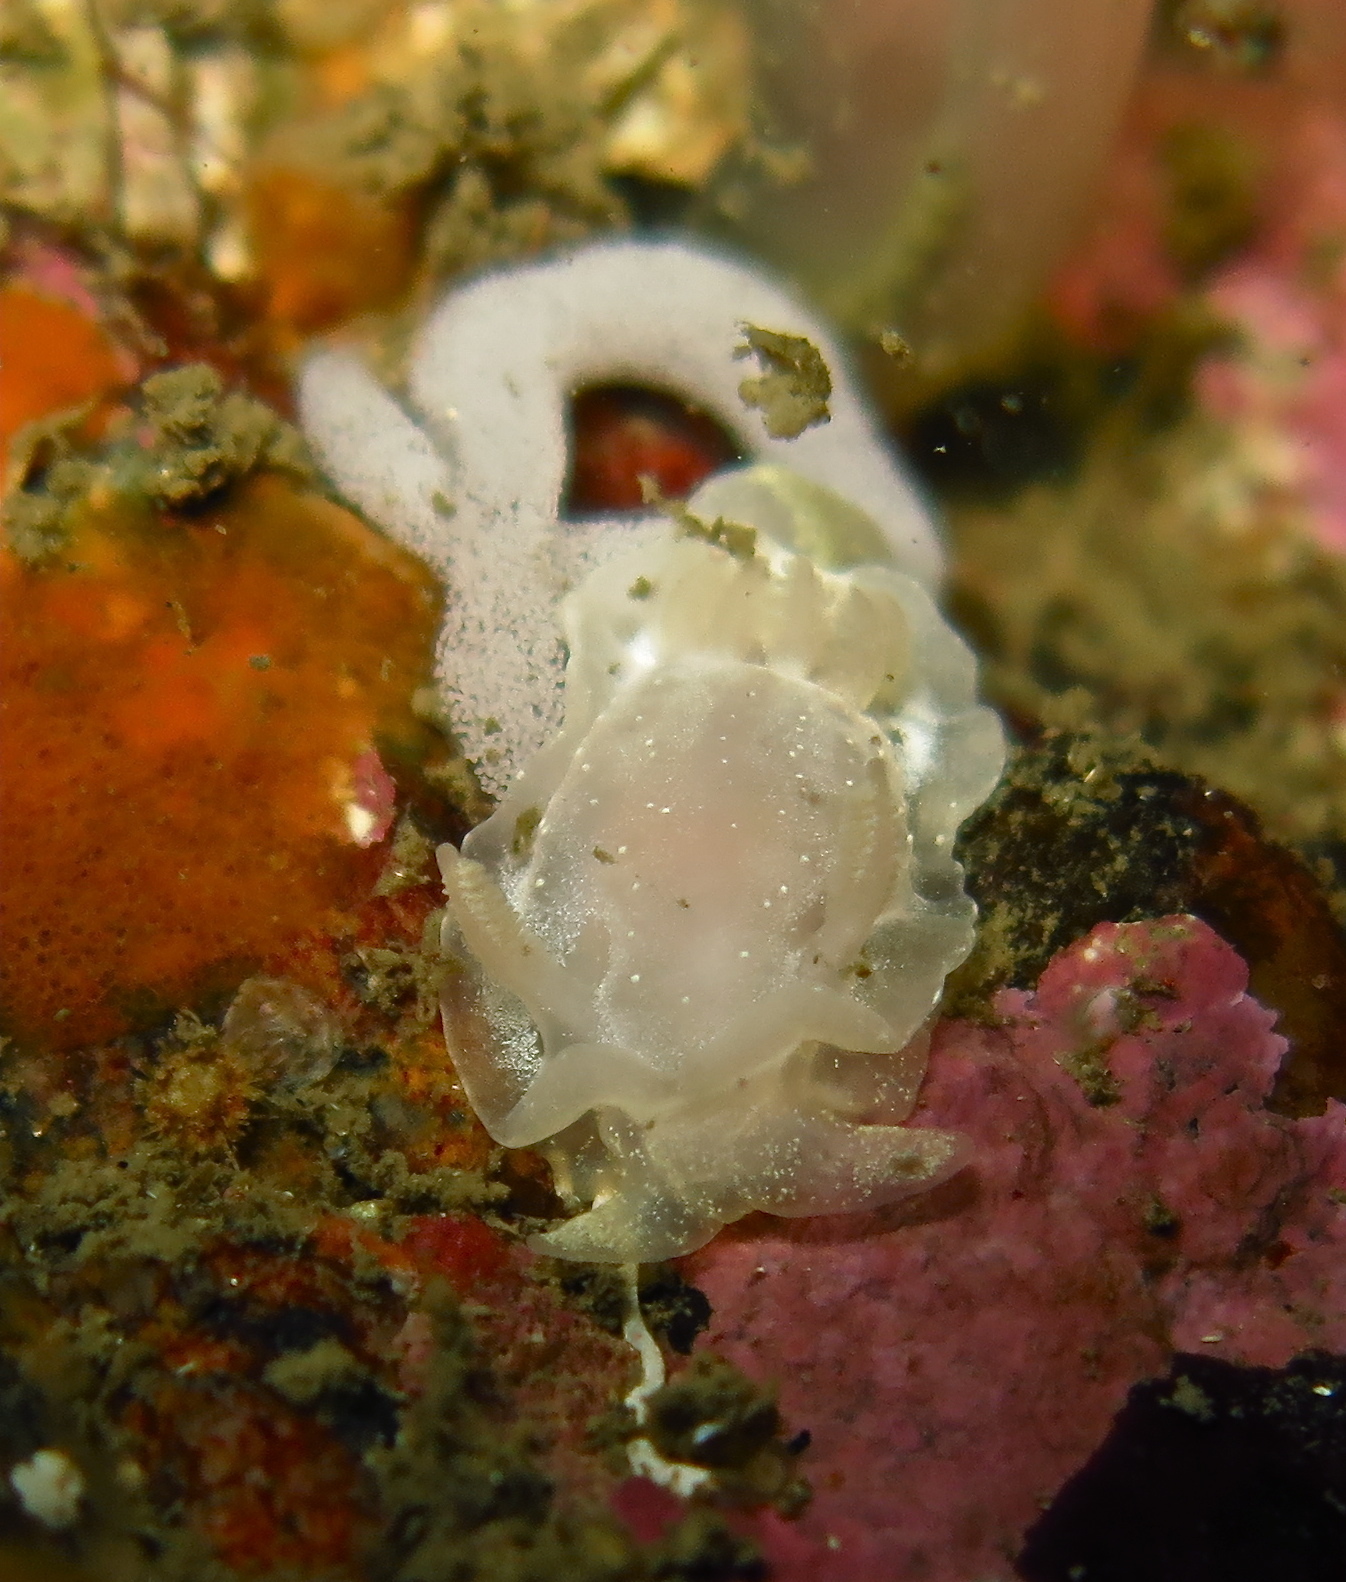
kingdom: Animalia
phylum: Mollusca
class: Gastropoda
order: Nudibranchia
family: Goniodorididae
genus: Okenia
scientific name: Okenia
